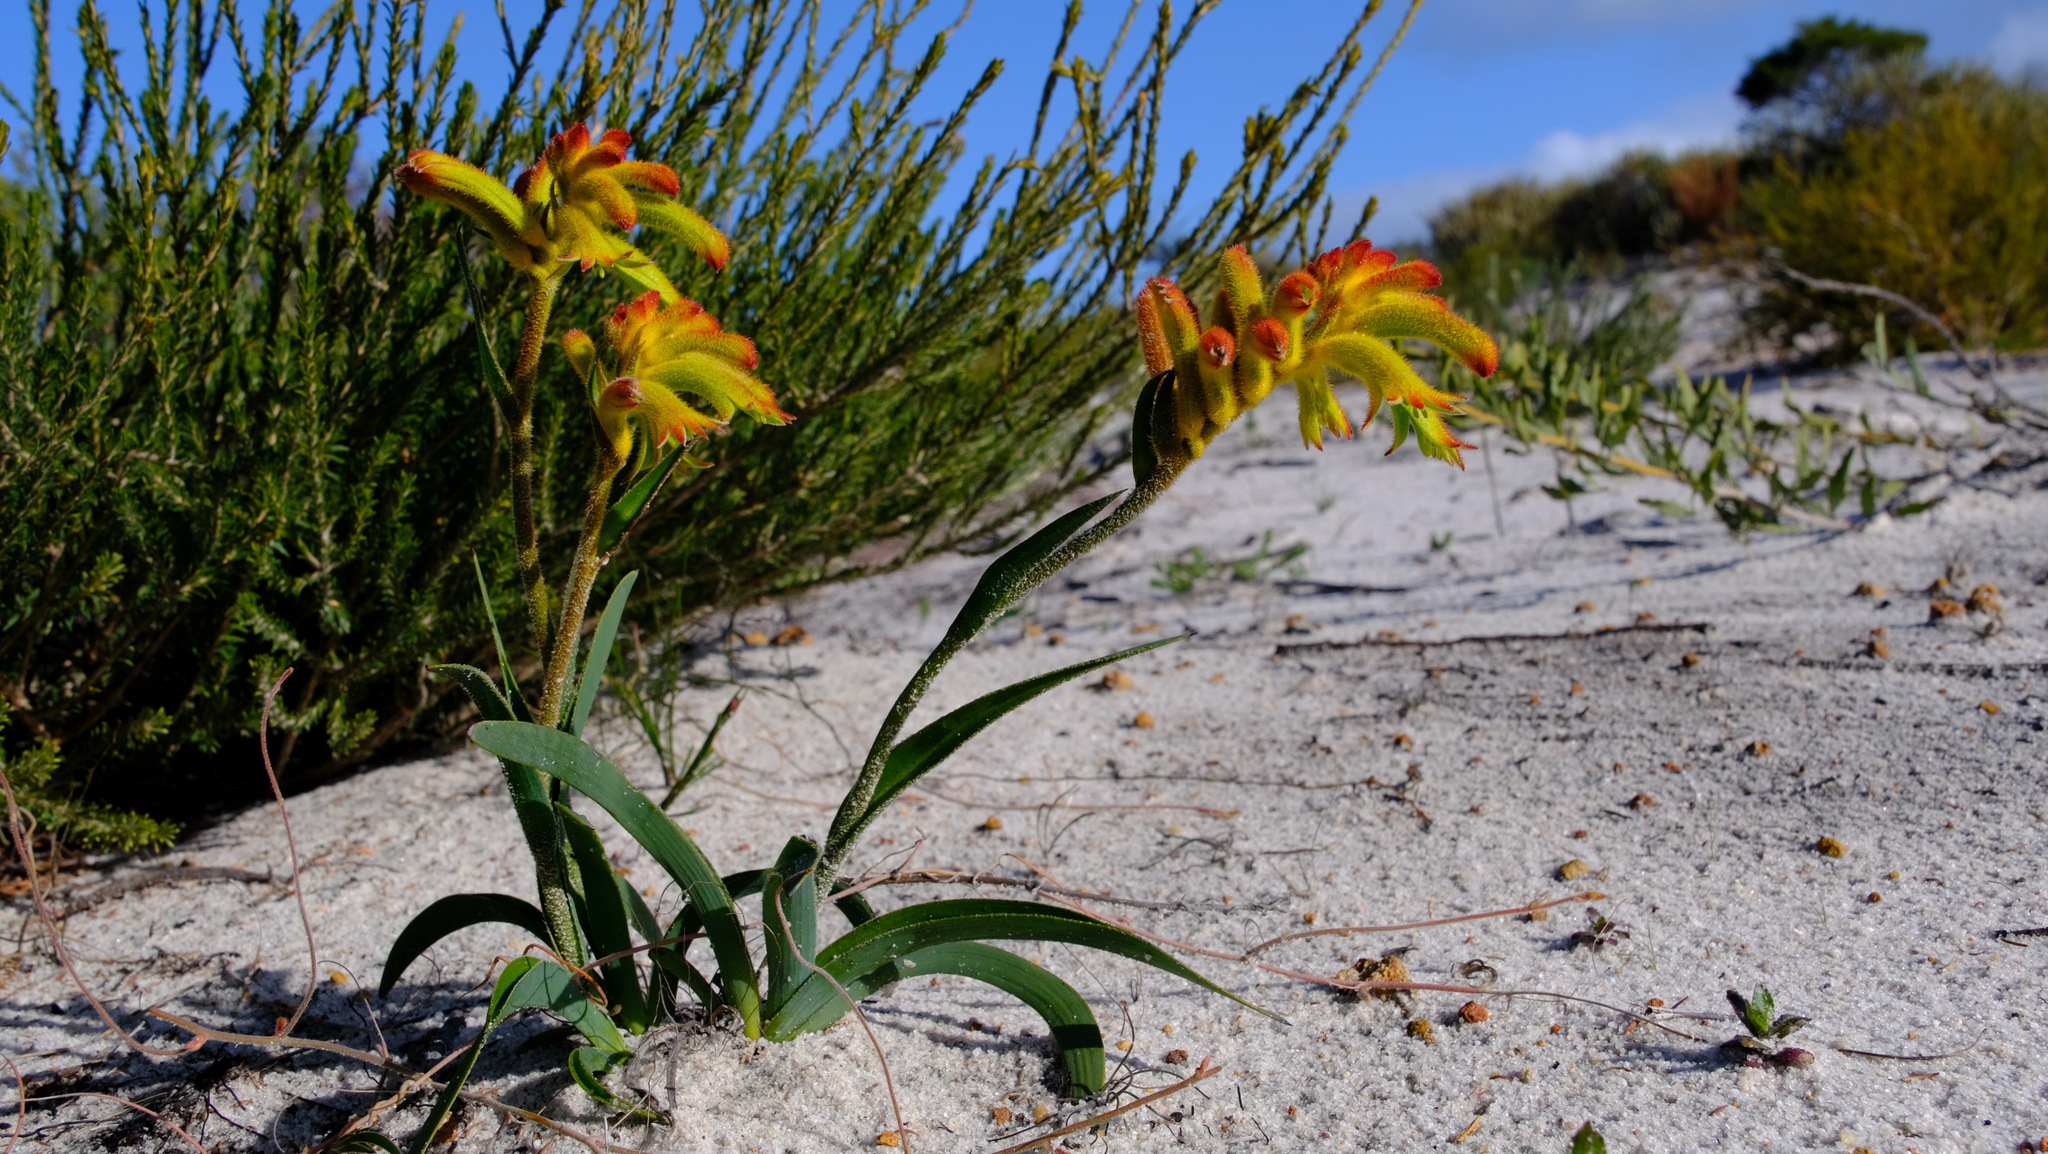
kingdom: Plantae
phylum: Tracheophyta
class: Liliopsida
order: Commelinales
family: Haemodoraceae
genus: Anigozanthos
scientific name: Anigozanthos humilis
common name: Cat's-paw
